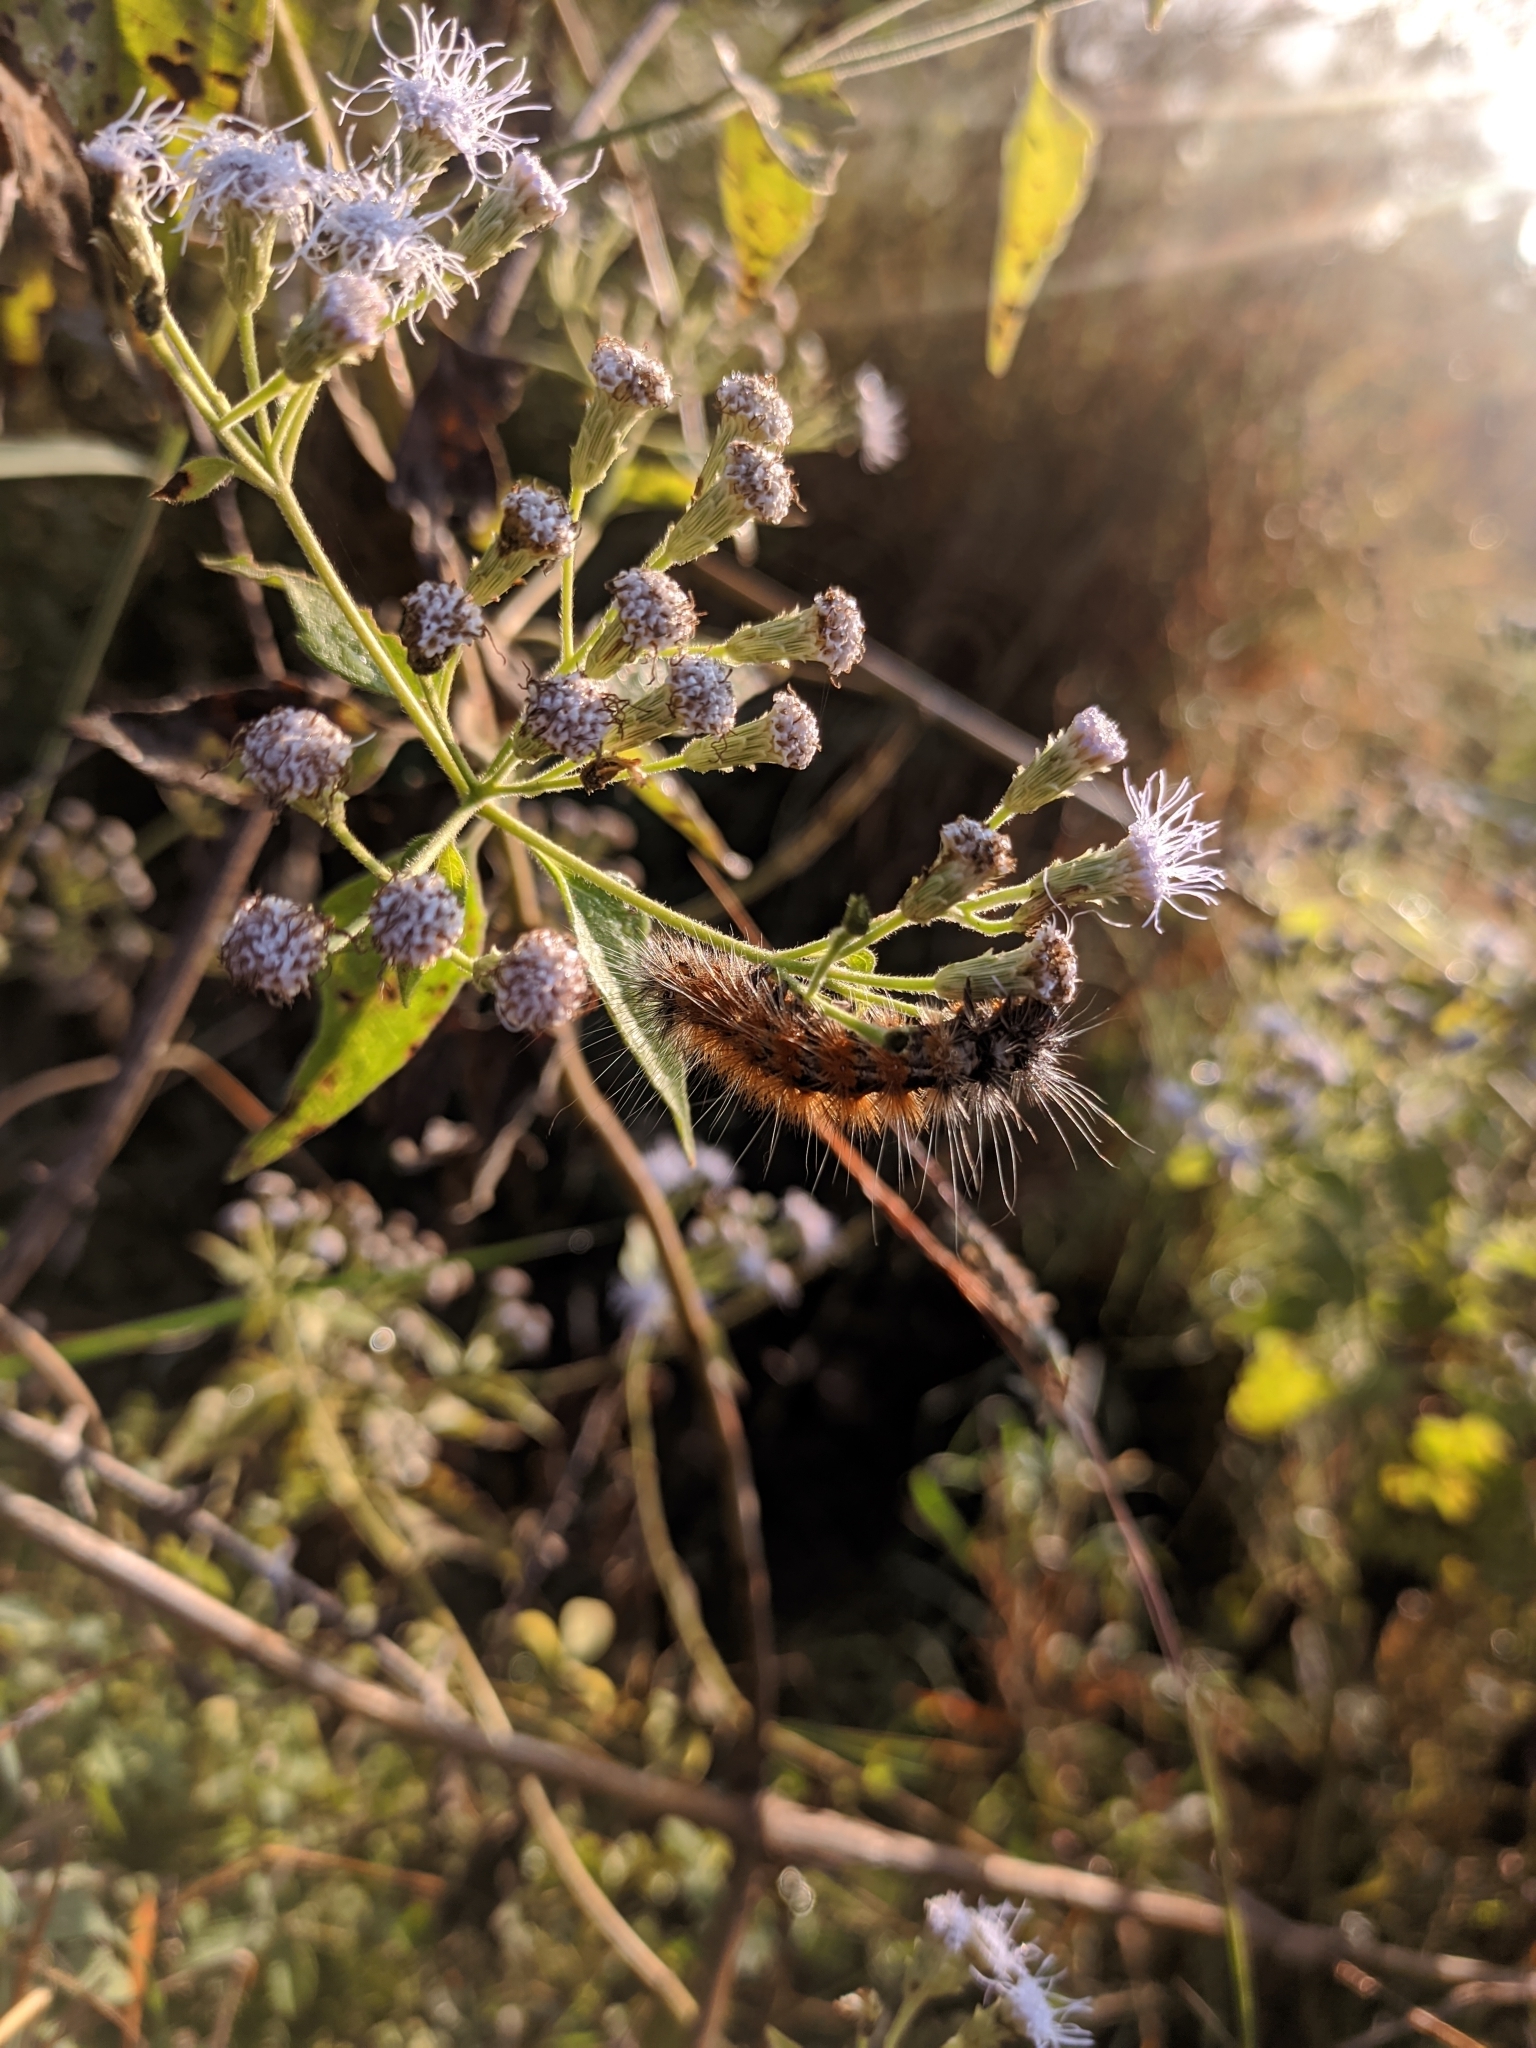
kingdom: Plantae
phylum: Tracheophyta
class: Magnoliopsida
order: Asterales
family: Asteraceae
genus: Chromolaena
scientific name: Chromolaena odorata
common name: Siamweed
